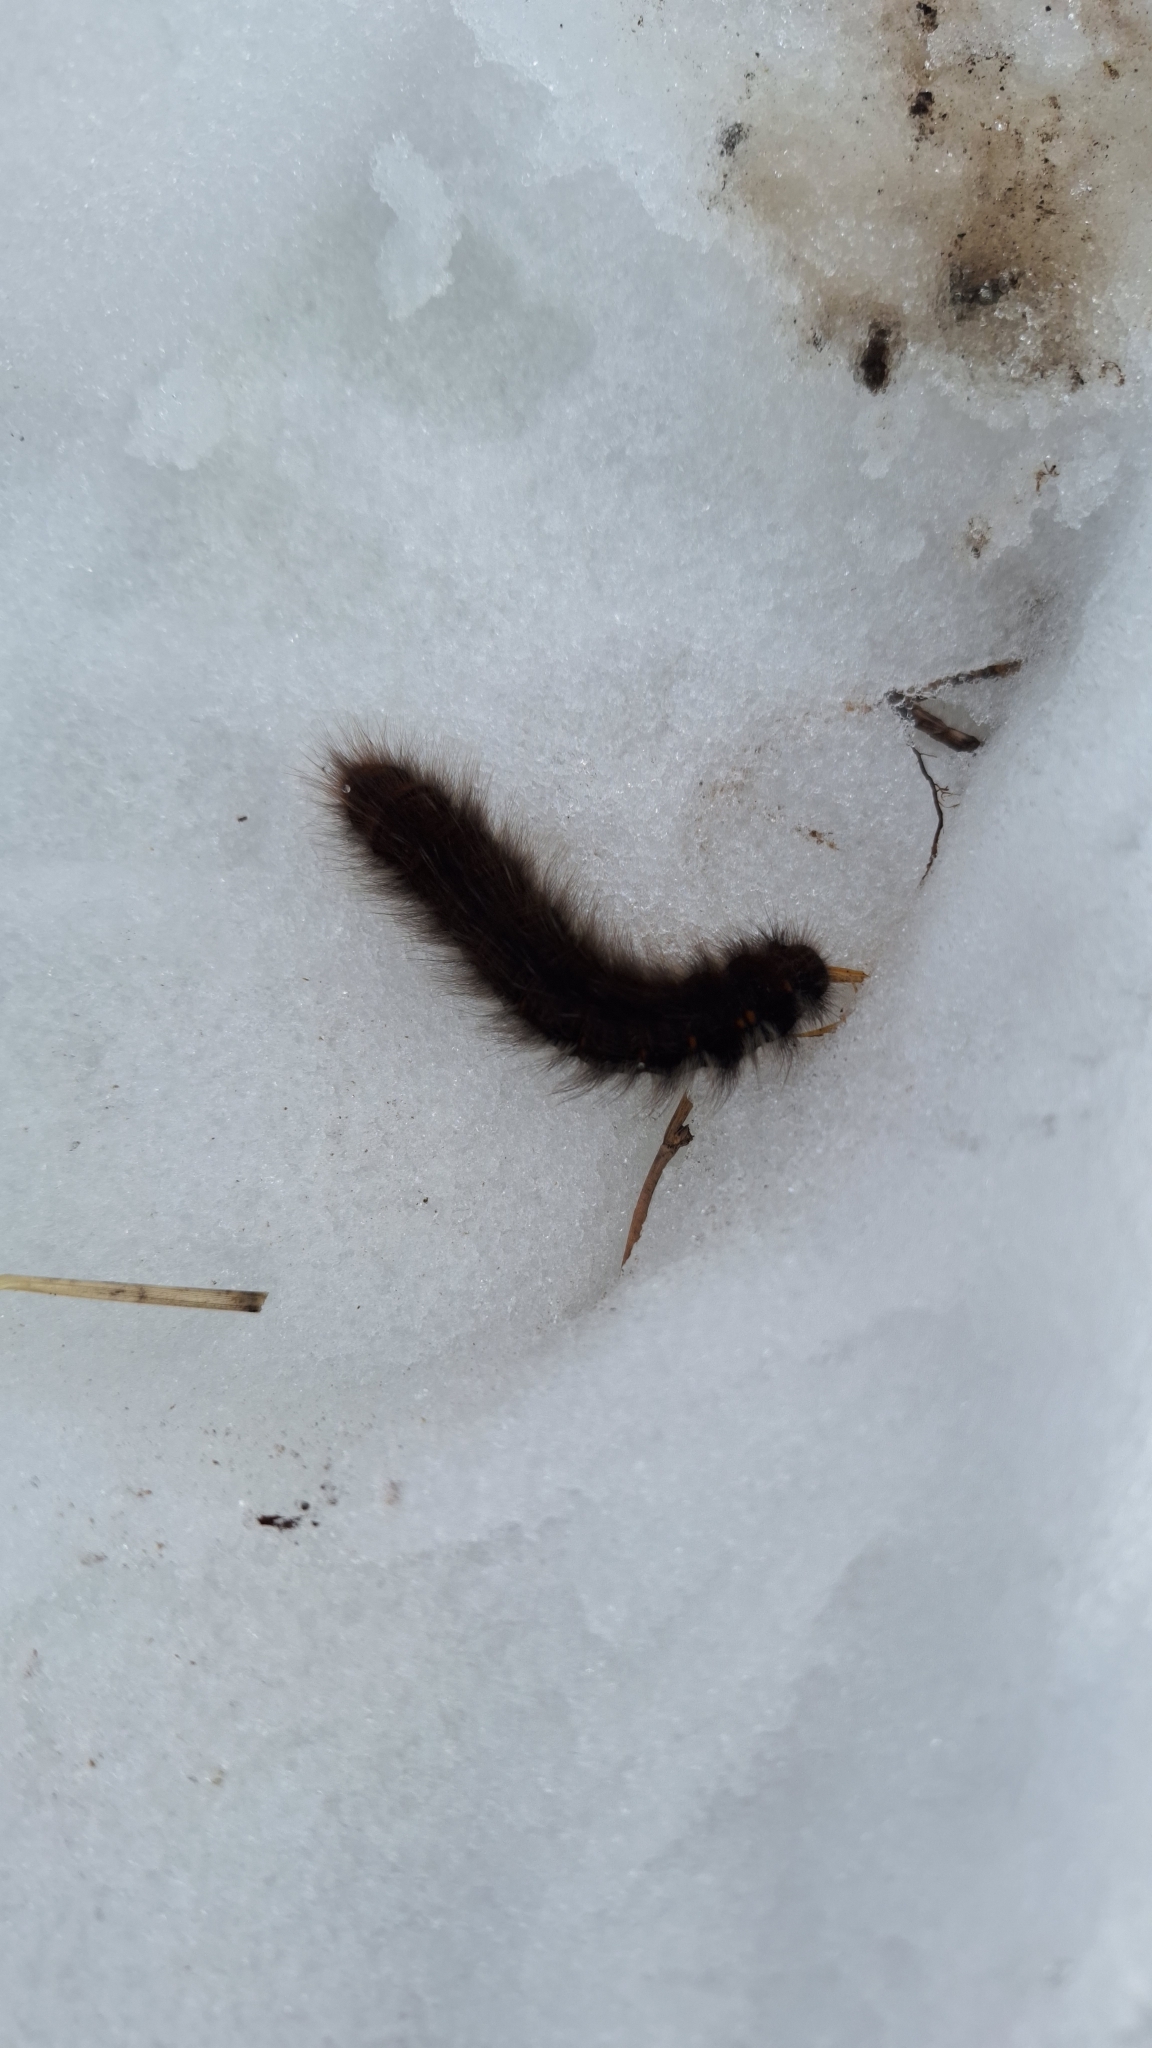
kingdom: Animalia
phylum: Arthropoda
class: Insecta
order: Lepidoptera
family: Lasiocampidae
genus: Macrothylacia
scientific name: Macrothylacia rubi
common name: Fox moth
